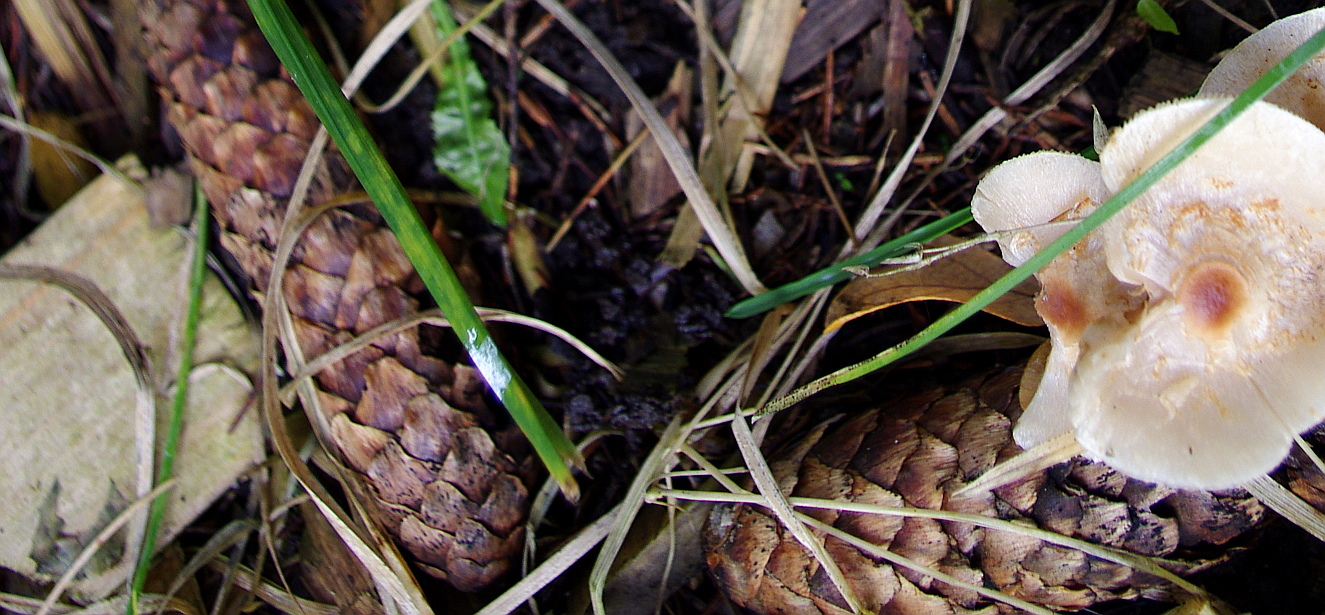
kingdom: Plantae
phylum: Tracheophyta
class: Pinopsida
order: Pinales
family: Pinaceae
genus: Picea
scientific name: Picea abies
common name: Norway spruce
